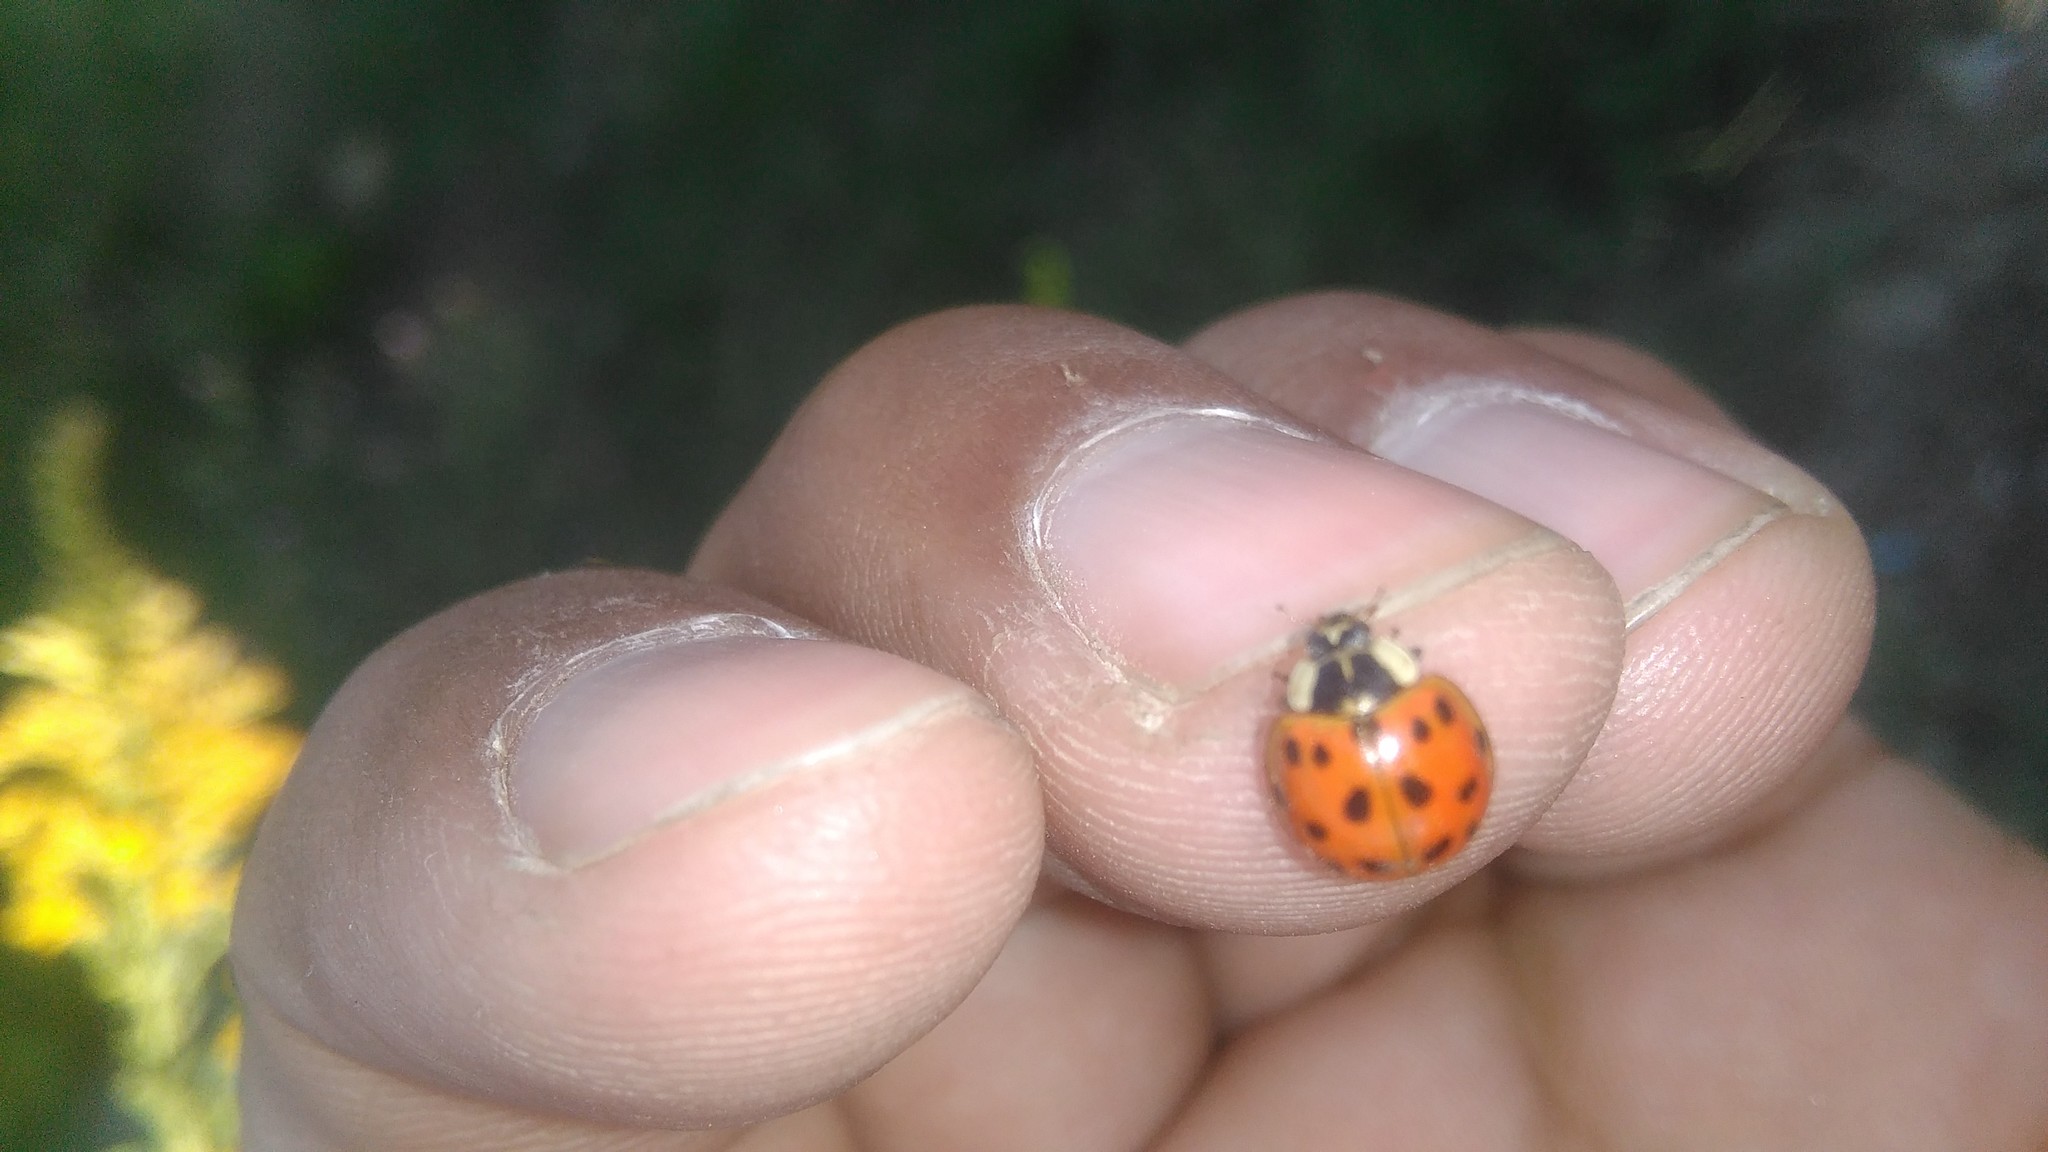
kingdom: Animalia
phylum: Arthropoda
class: Insecta
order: Coleoptera
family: Coccinellidae
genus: Harmonia
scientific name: Harmonia axyridis
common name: Harlequin ladybird
